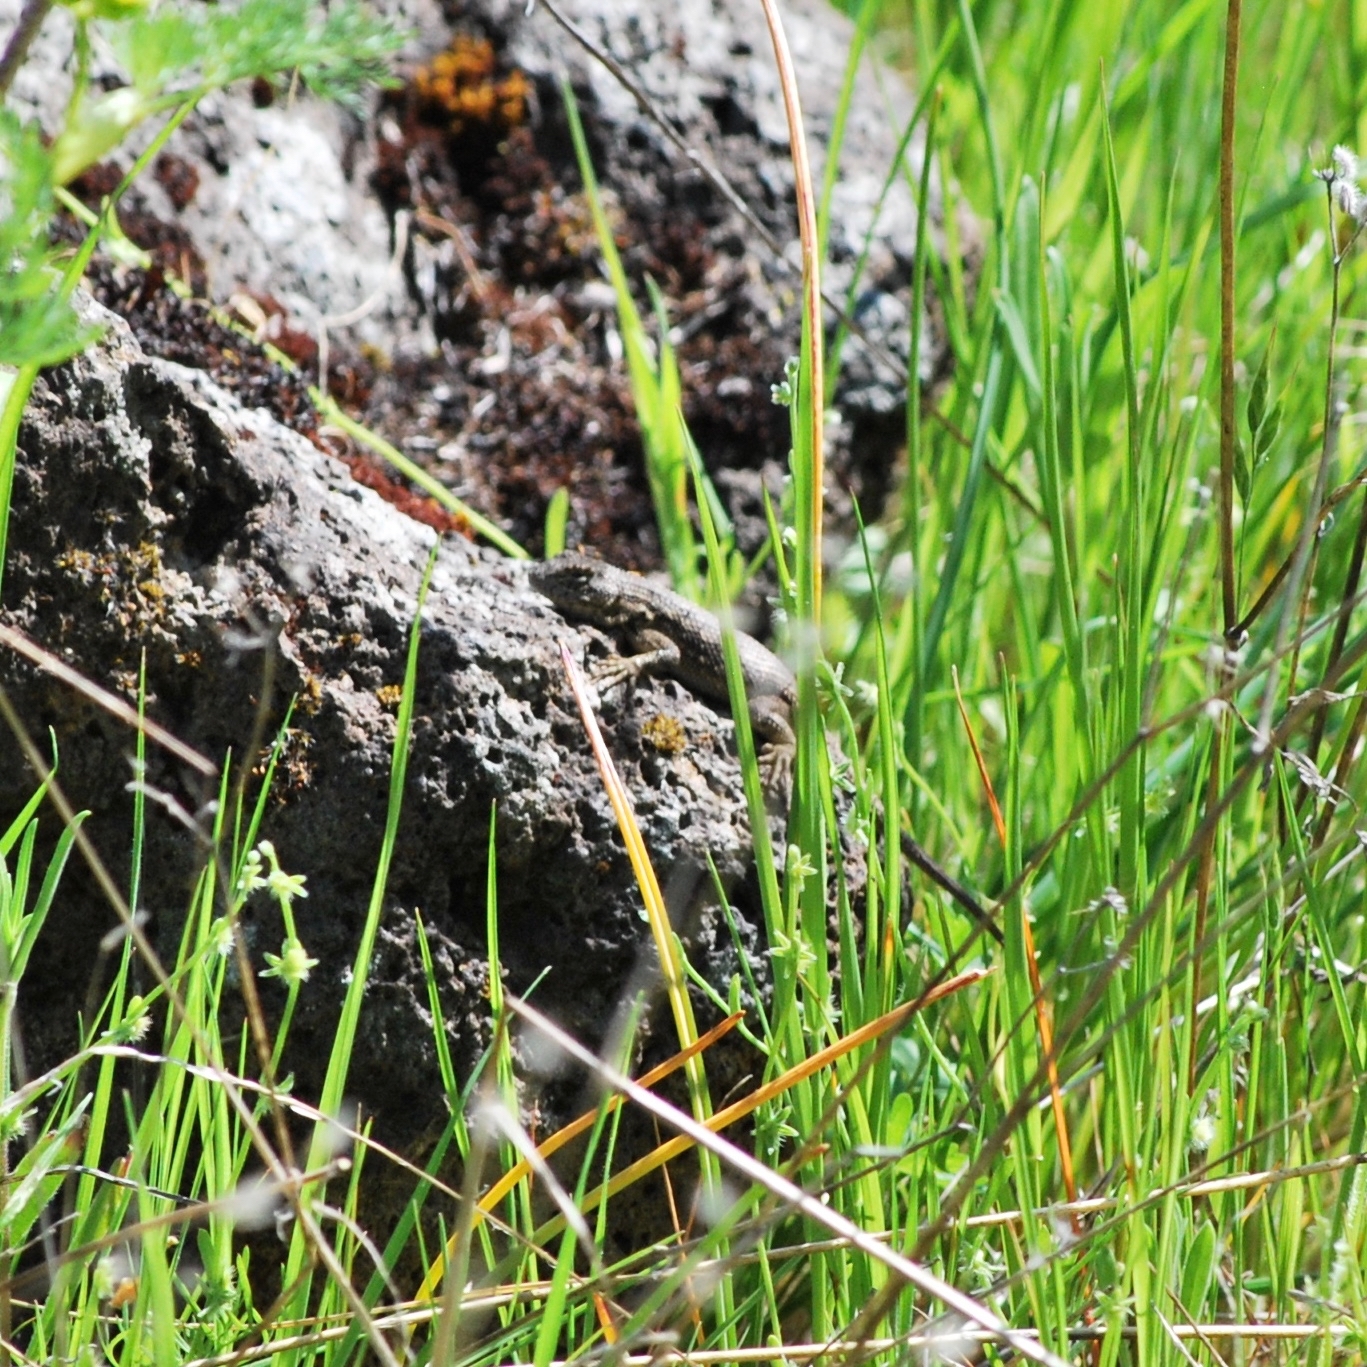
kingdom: Animalia
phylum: Chordata
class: Squamata
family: Phrynosomatidae
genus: Sceloporus
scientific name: Sceloporus occidentalis
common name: Western fence lizard
